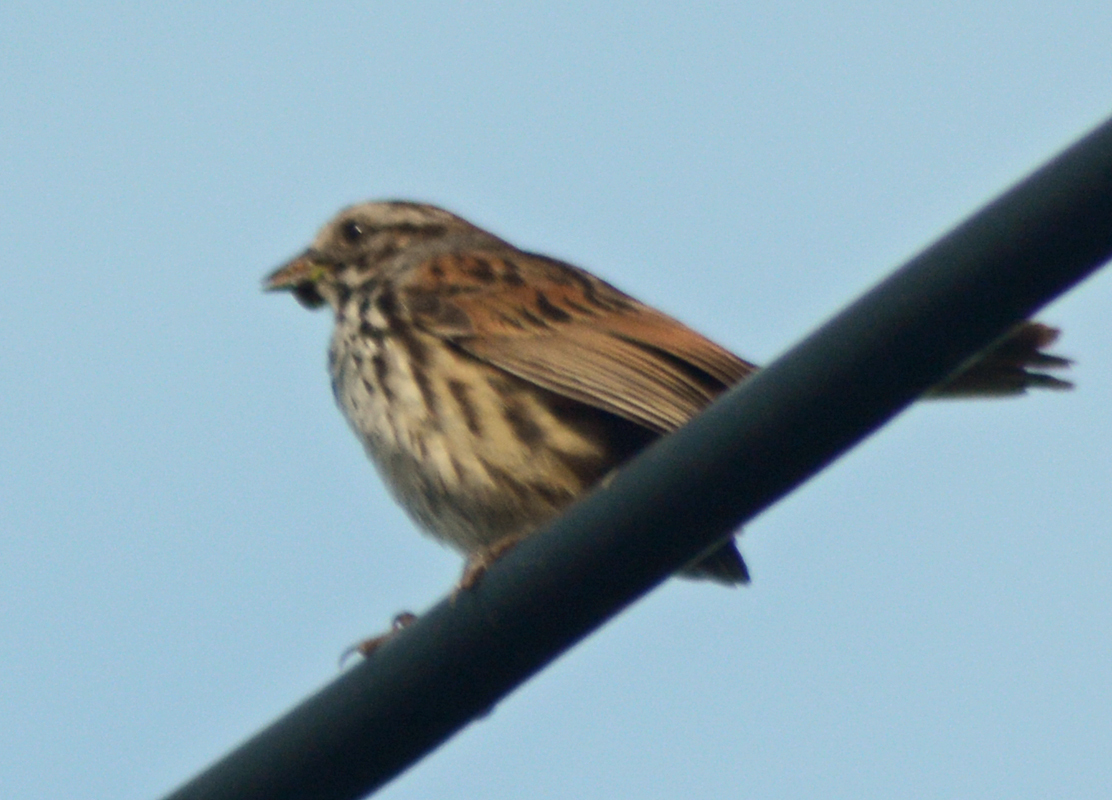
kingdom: Animalia
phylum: Chordata
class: Aves
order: Passeriformes
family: Passerellidae
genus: Melospiza
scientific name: Melospiza melodia
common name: Song sparrow
